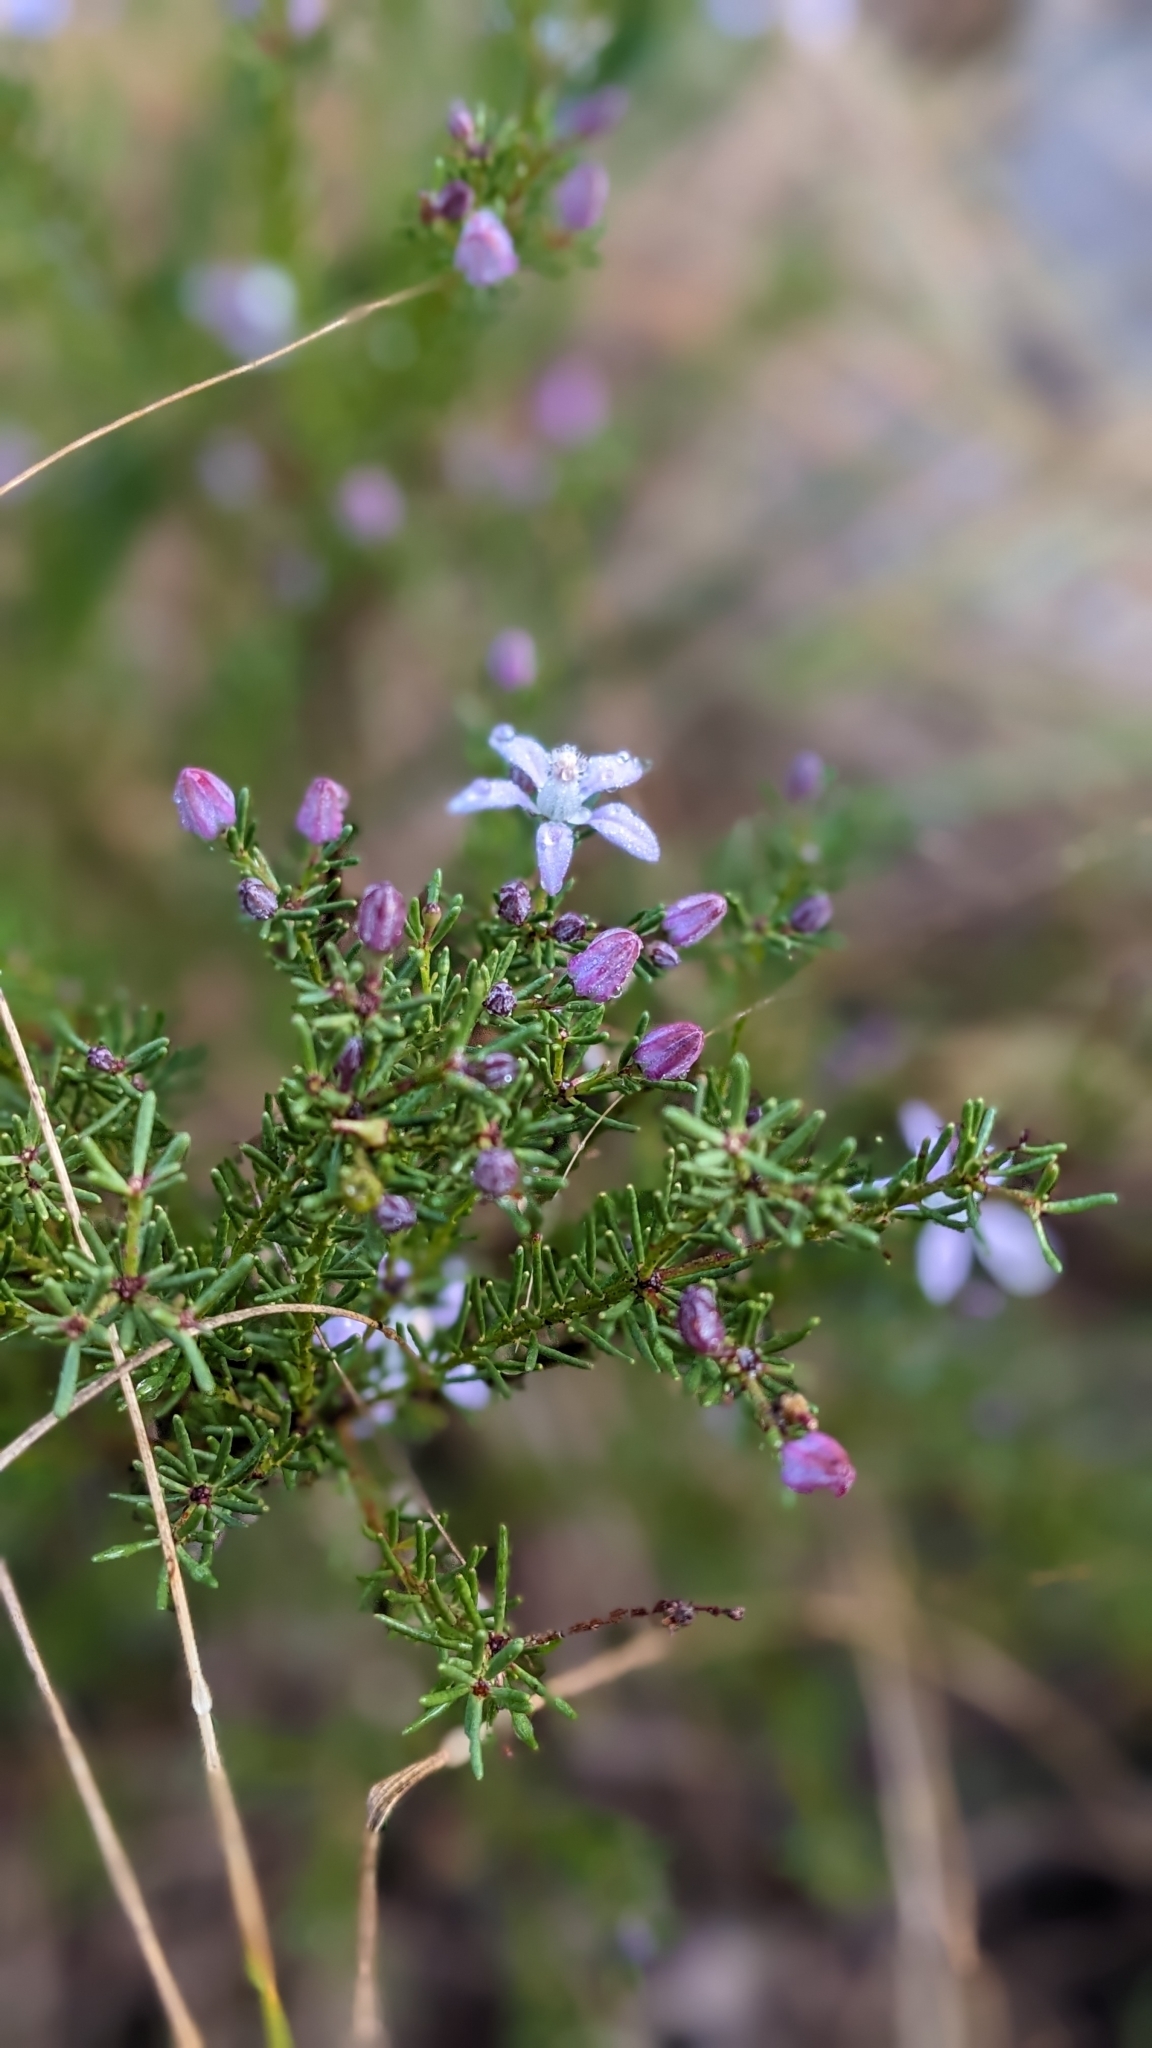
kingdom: Plantae
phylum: Tracheophyta
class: Magnoliopsida
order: Sapindales
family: Rutaceae
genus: Philotheca
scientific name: Philotheca salsolifolia
